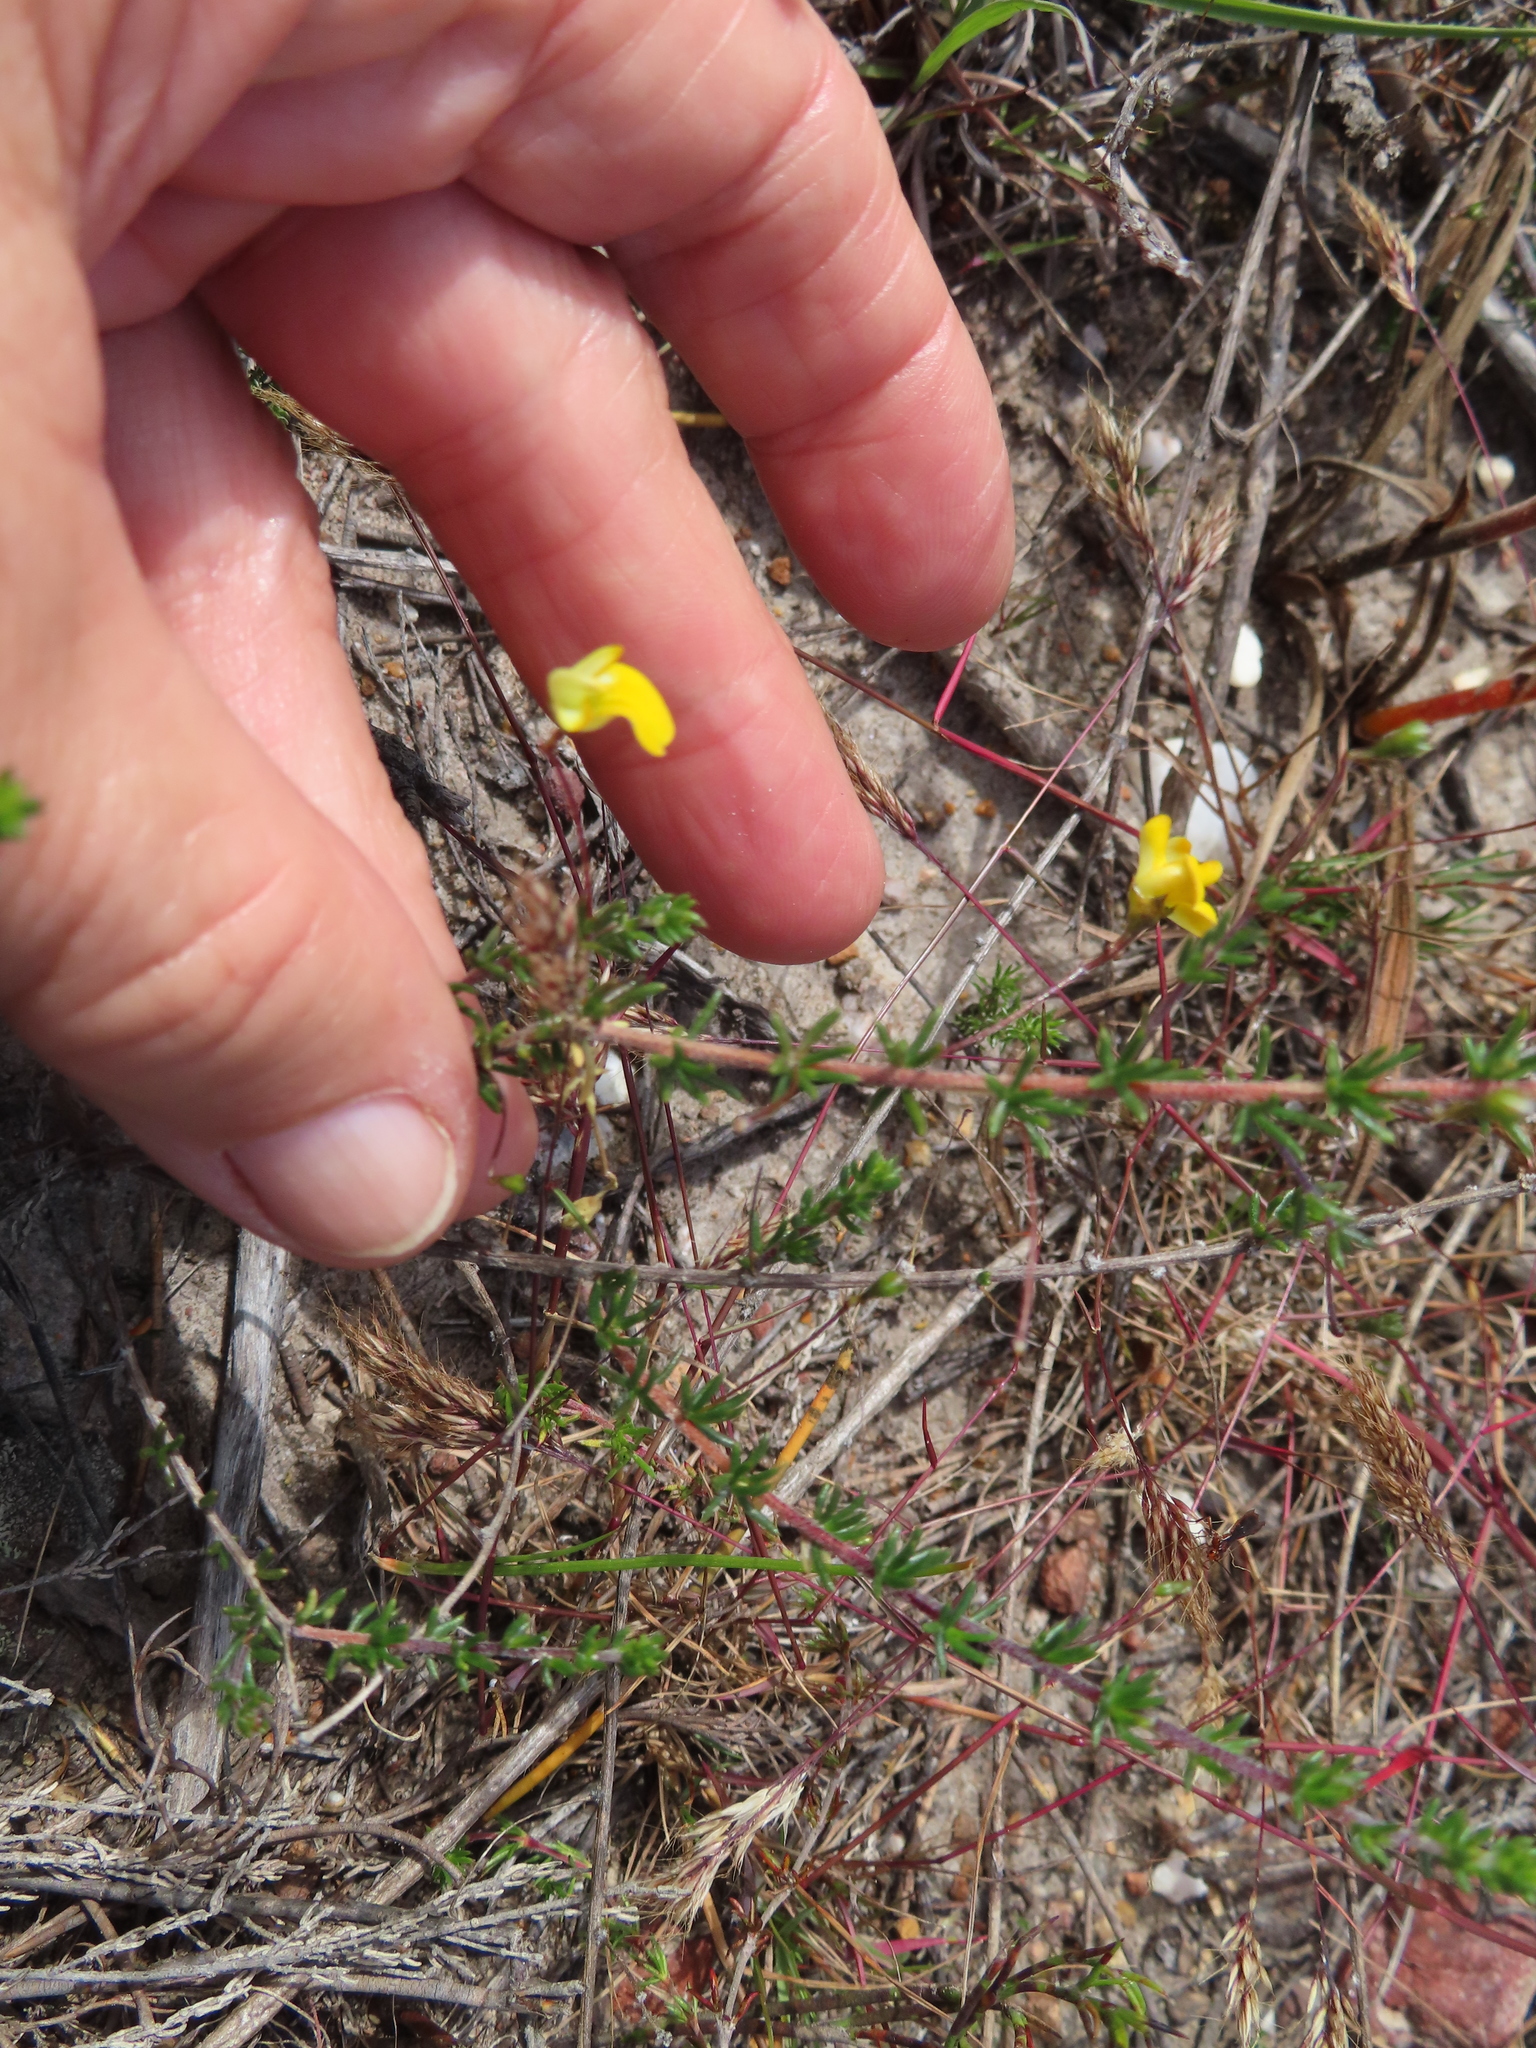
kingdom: Plantae
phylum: Tracheophyta
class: Magnoliopsida
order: Fabales
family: Fabaceae
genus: Aspalathus
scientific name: Aspalathus serpens
